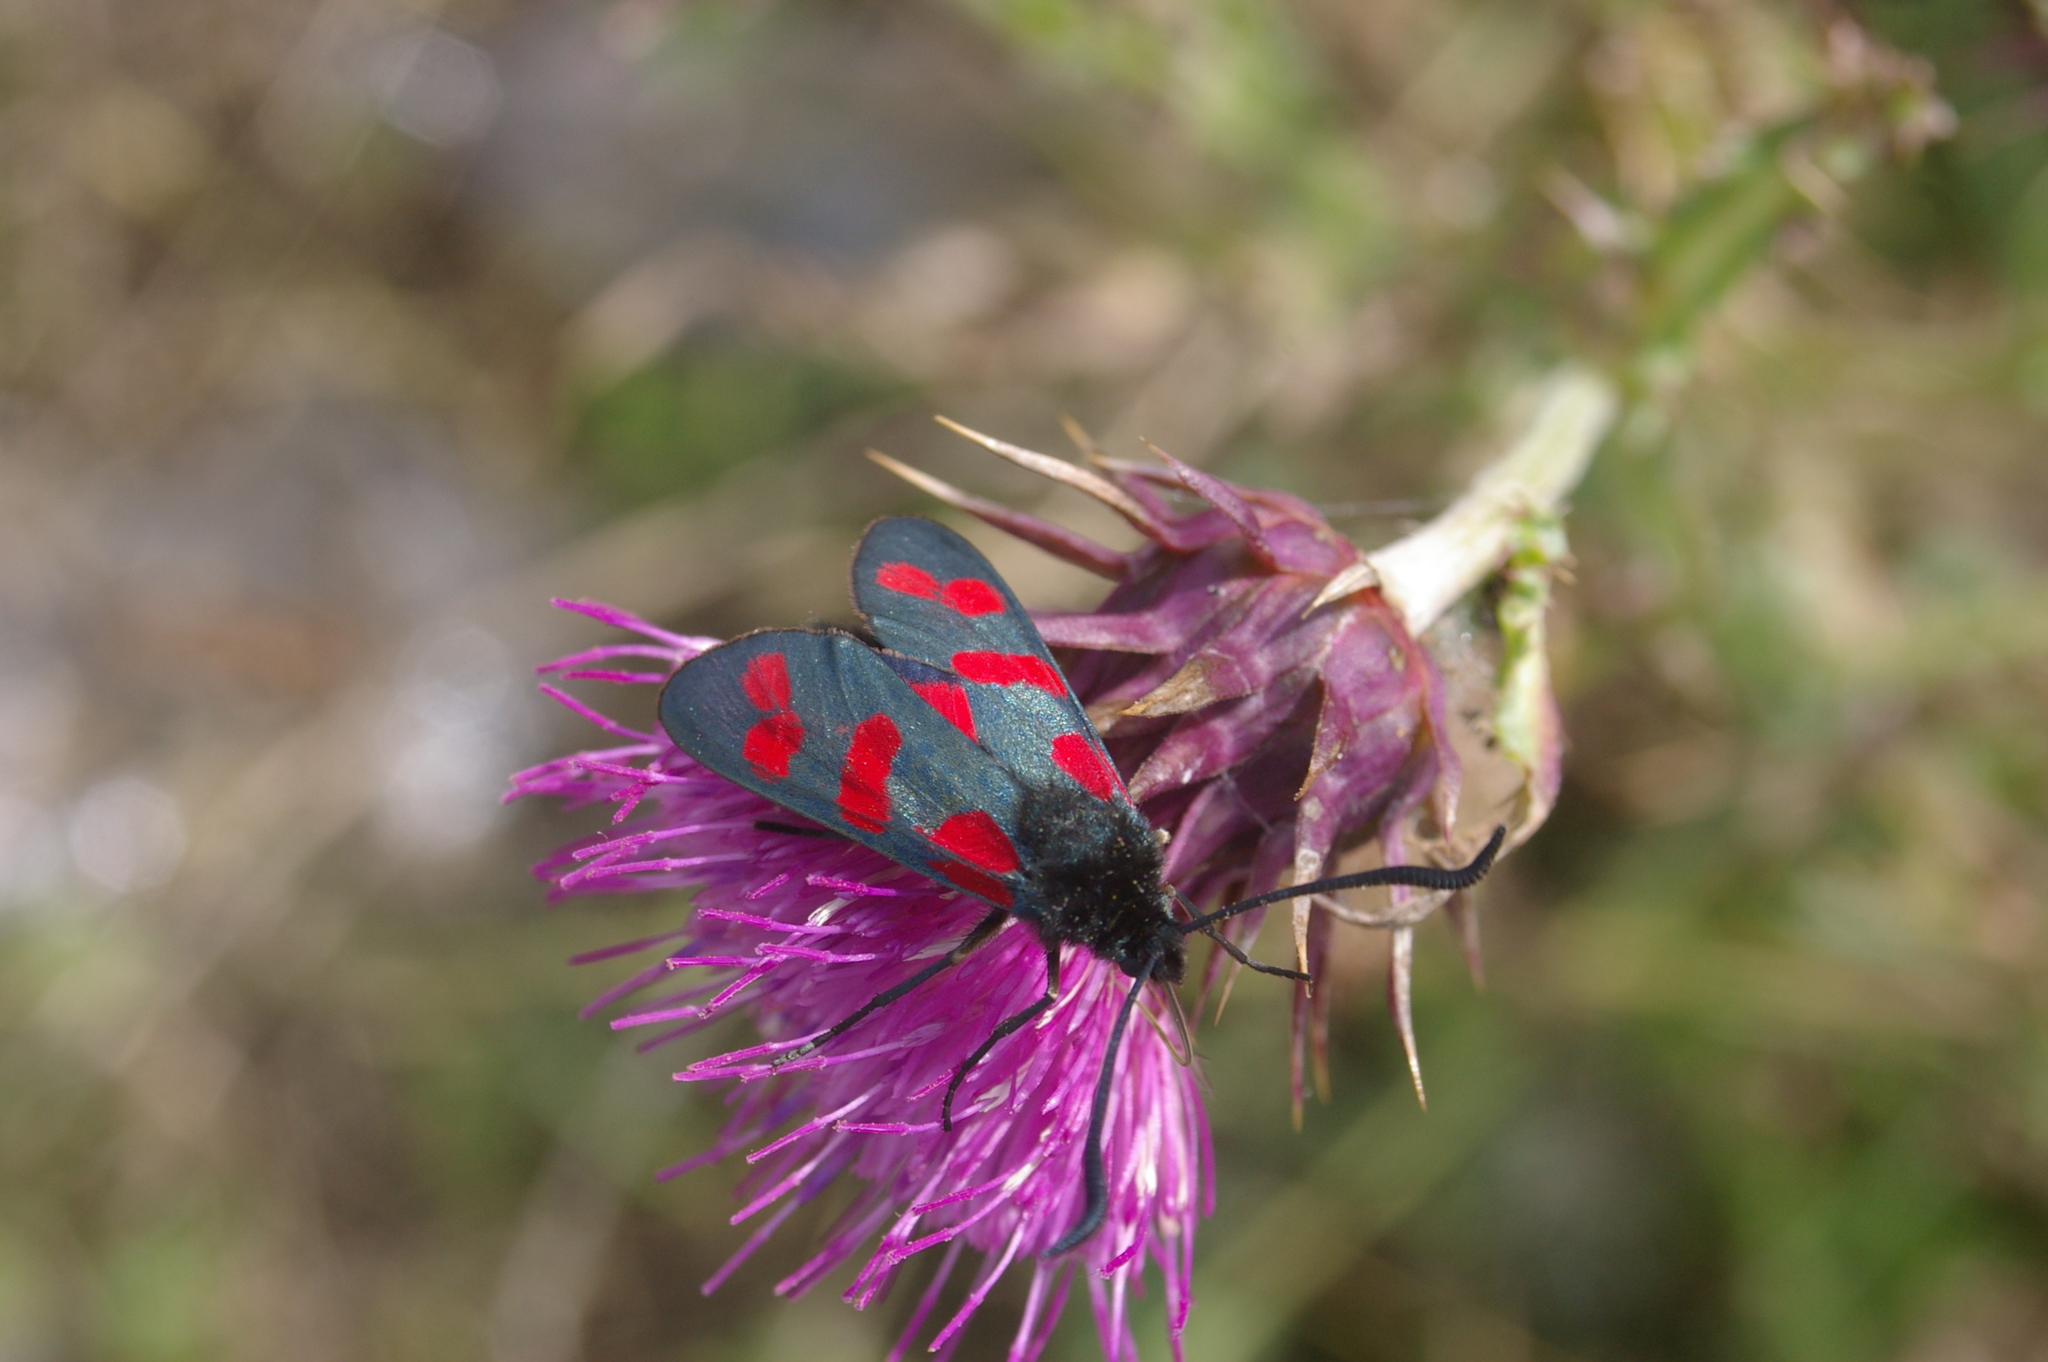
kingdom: Animalia
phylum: Arthropoda
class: Insecta
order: Lepidoptera
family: Zygaenidae
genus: Zygaena
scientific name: Zygaena filipendulae
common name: Six-spot burnet
